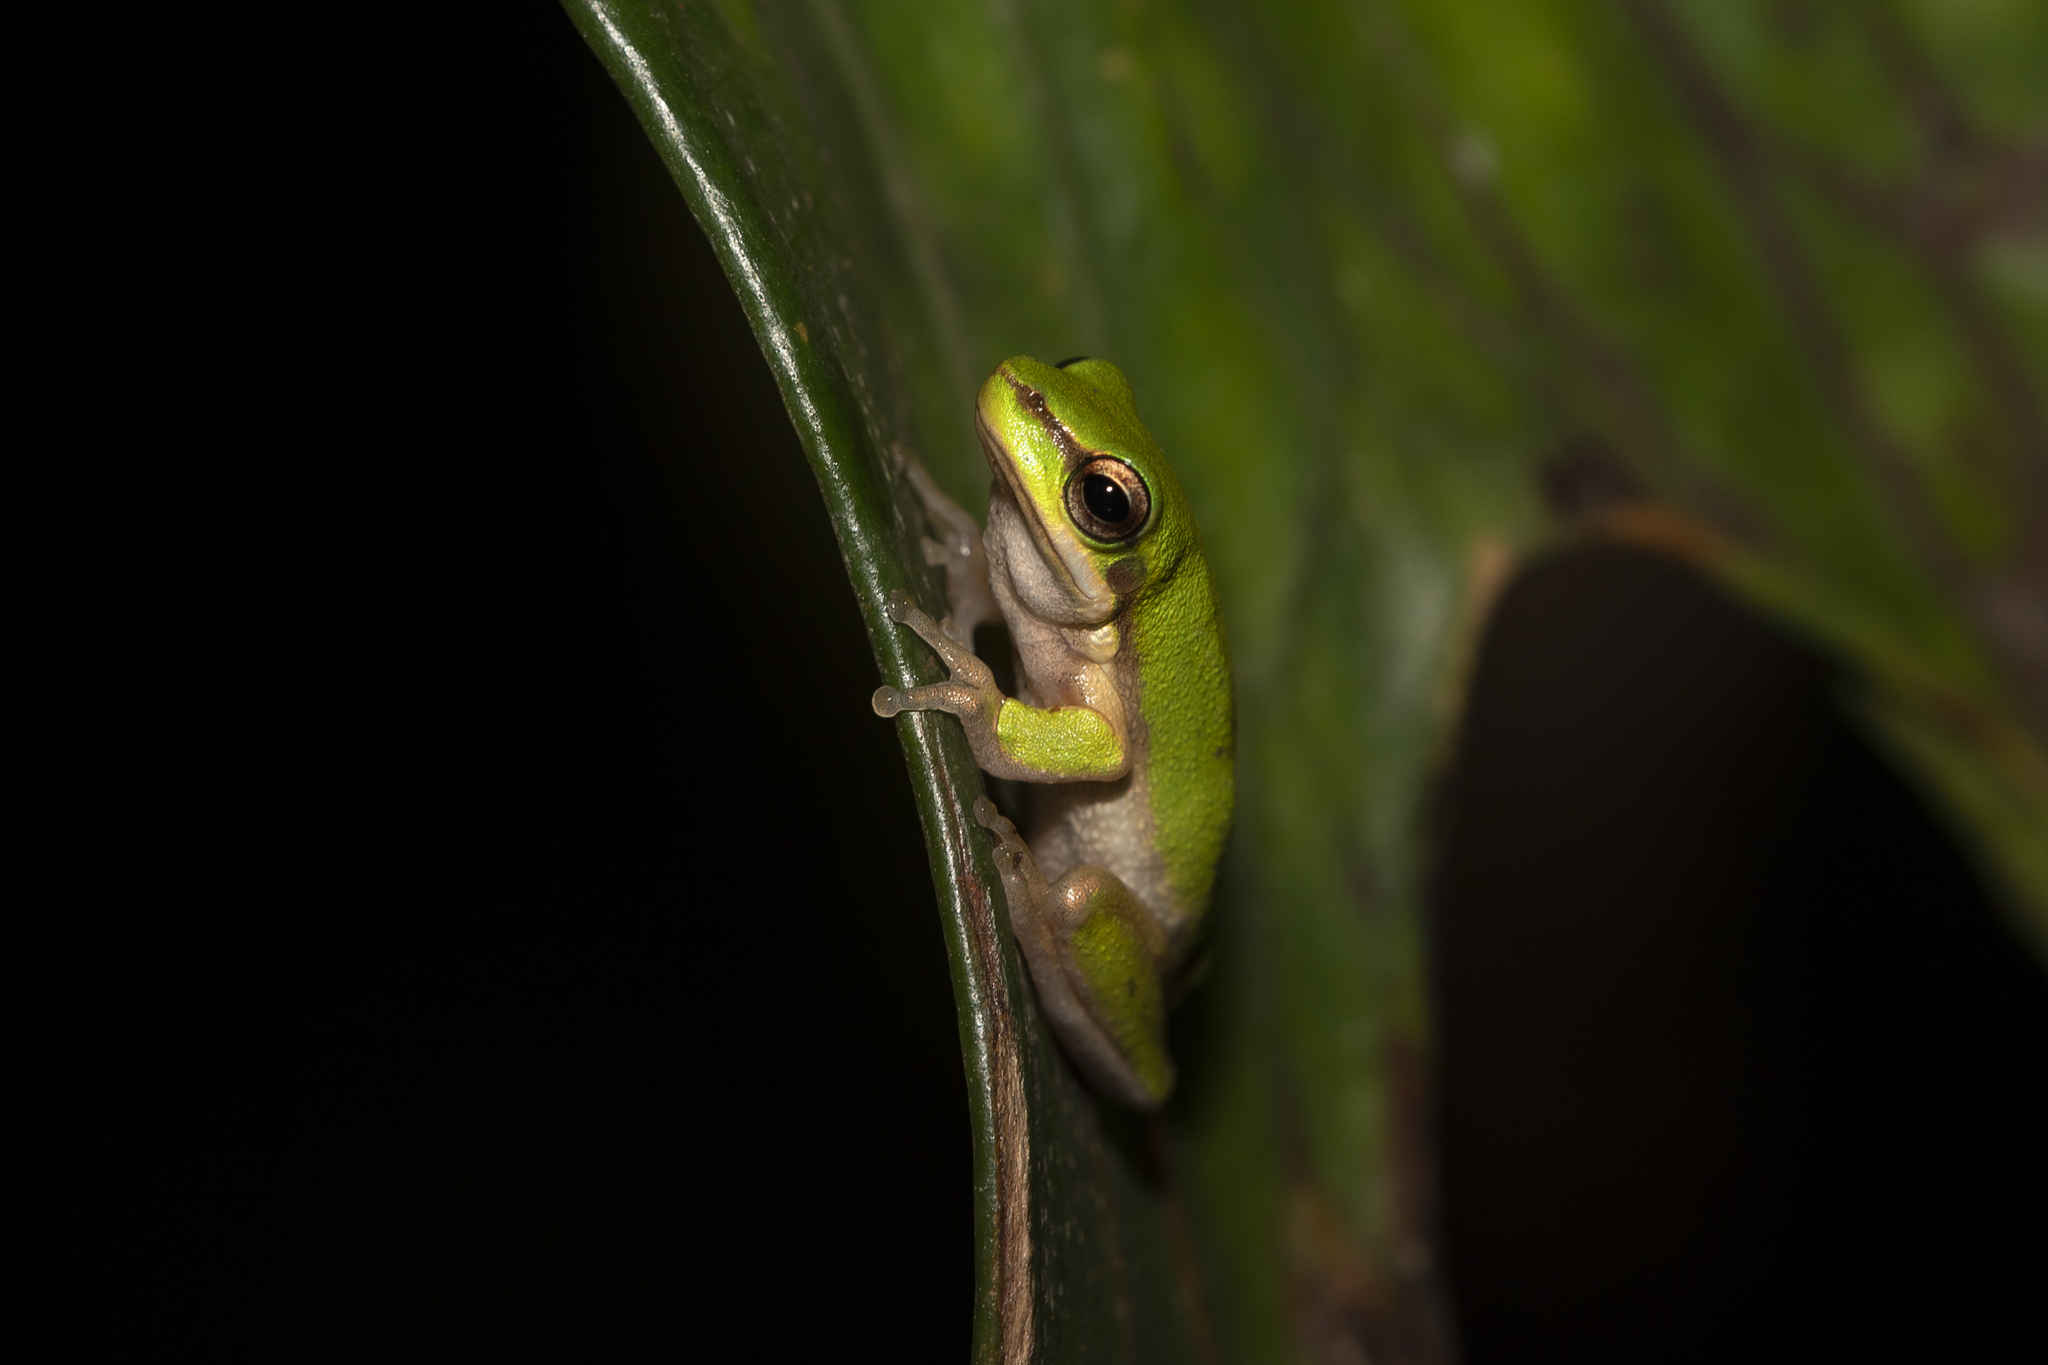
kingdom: Animalia
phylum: Chordata
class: Amphibia
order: Anura
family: Pelodryadidae
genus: Litoria
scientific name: Litoria bicolor
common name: Green reed frog
